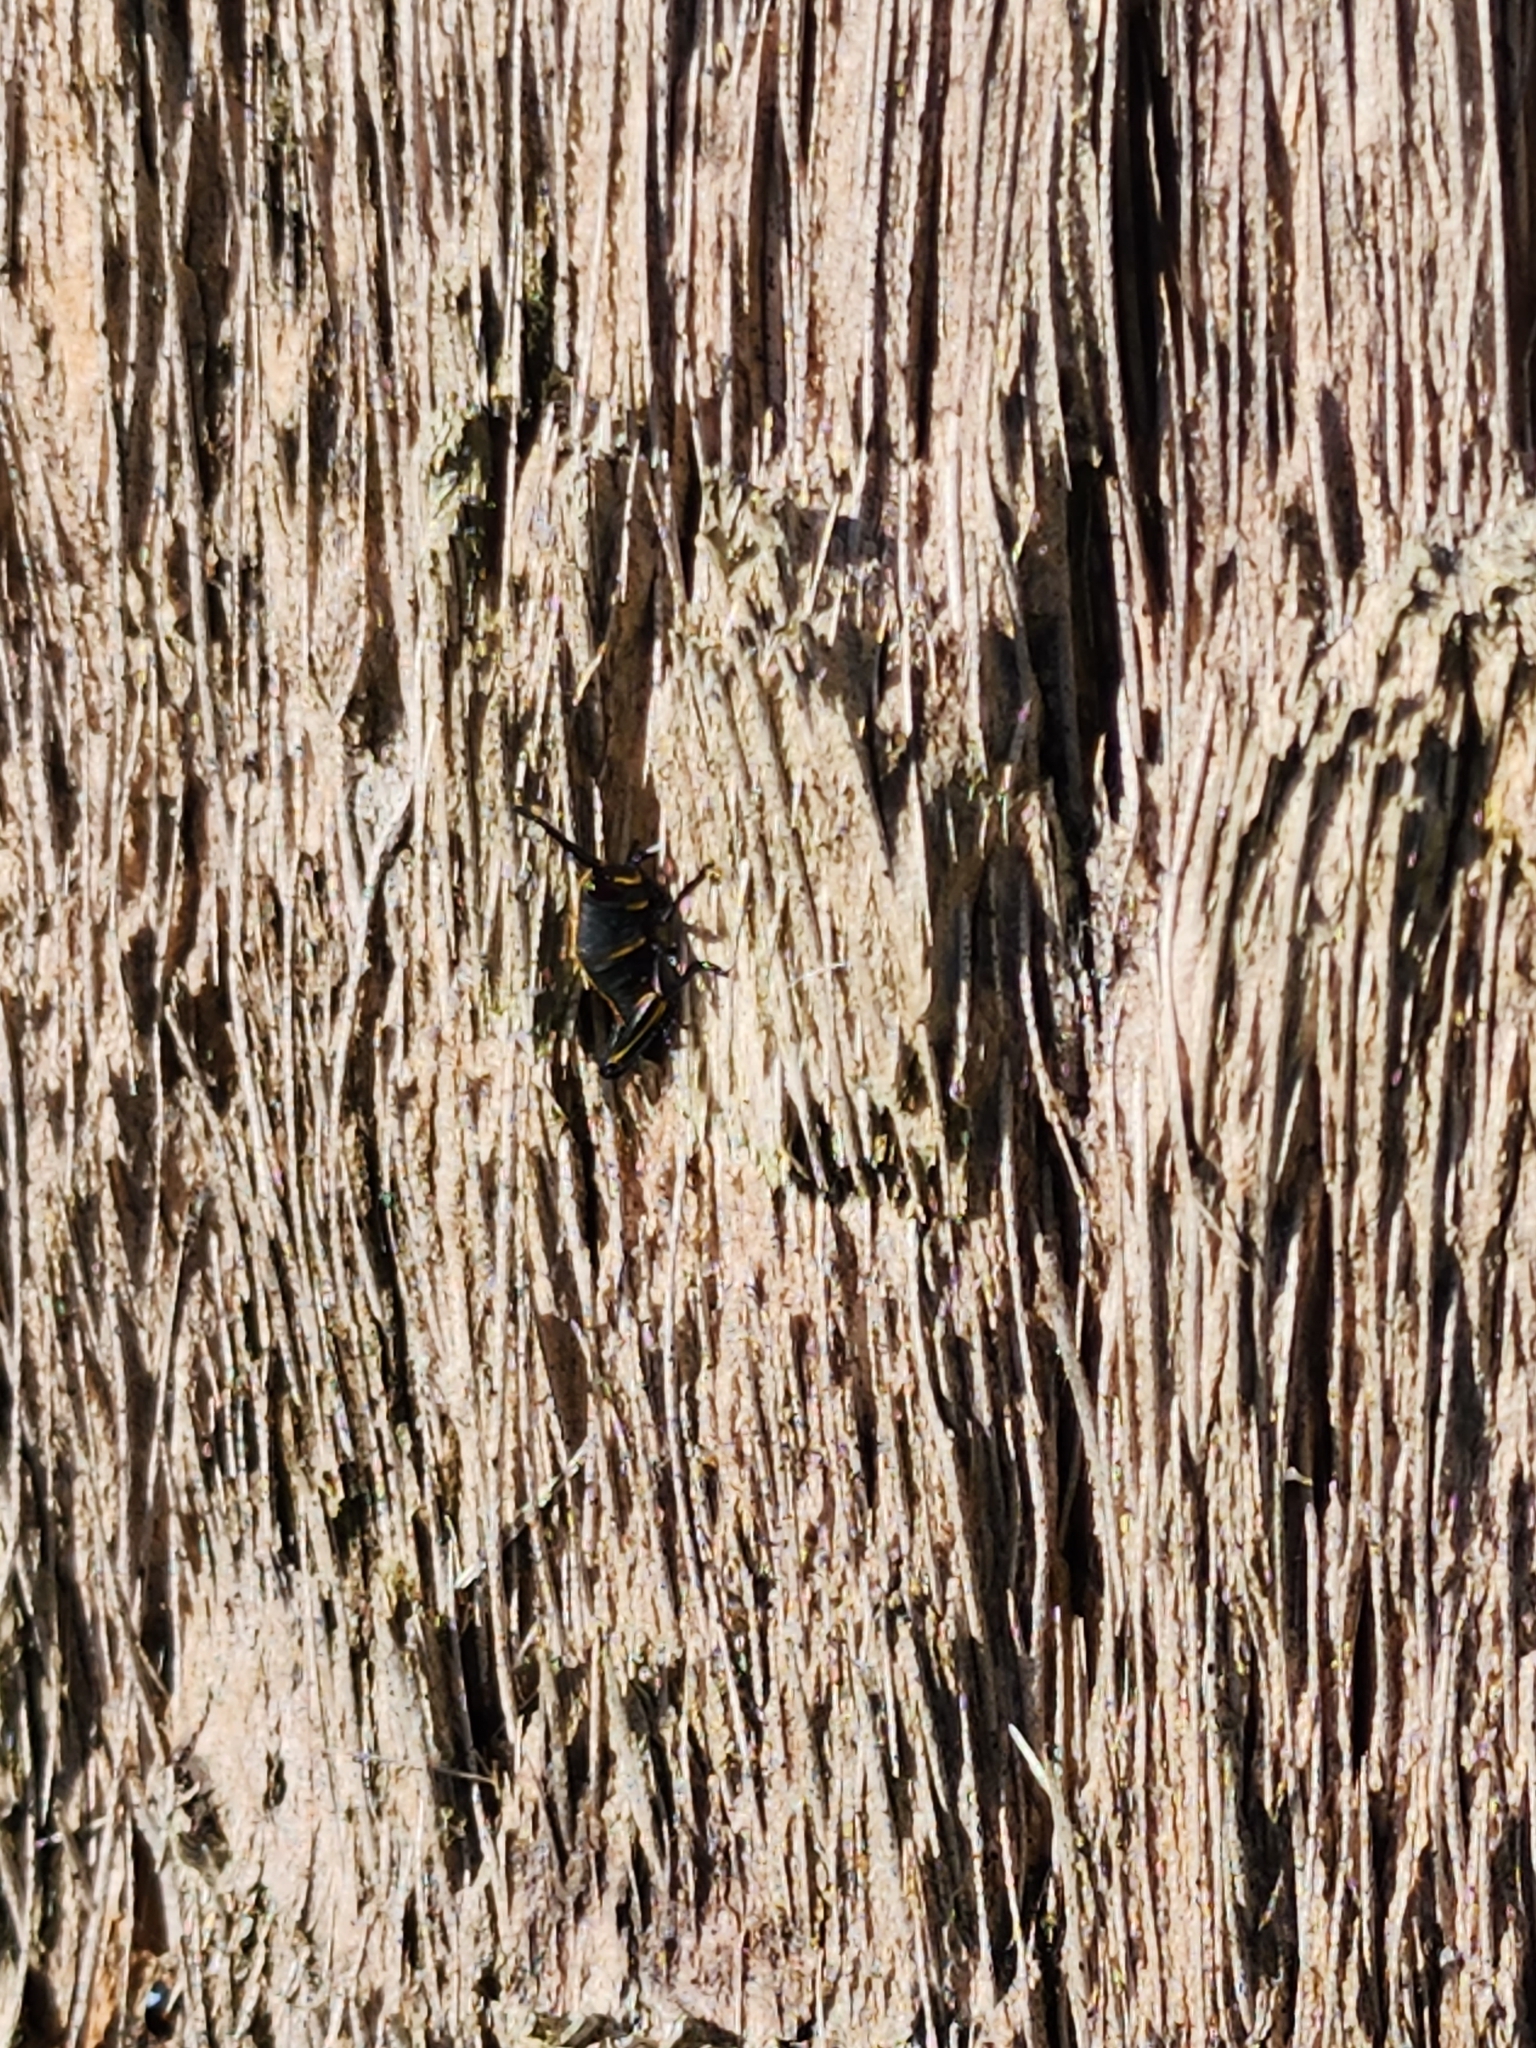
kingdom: Animalia
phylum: Arthropoda
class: Insecta
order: Orthoptera
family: Romaleidae
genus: Romalea
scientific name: Romalea microptera
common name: Eastern lubber grasshopper
